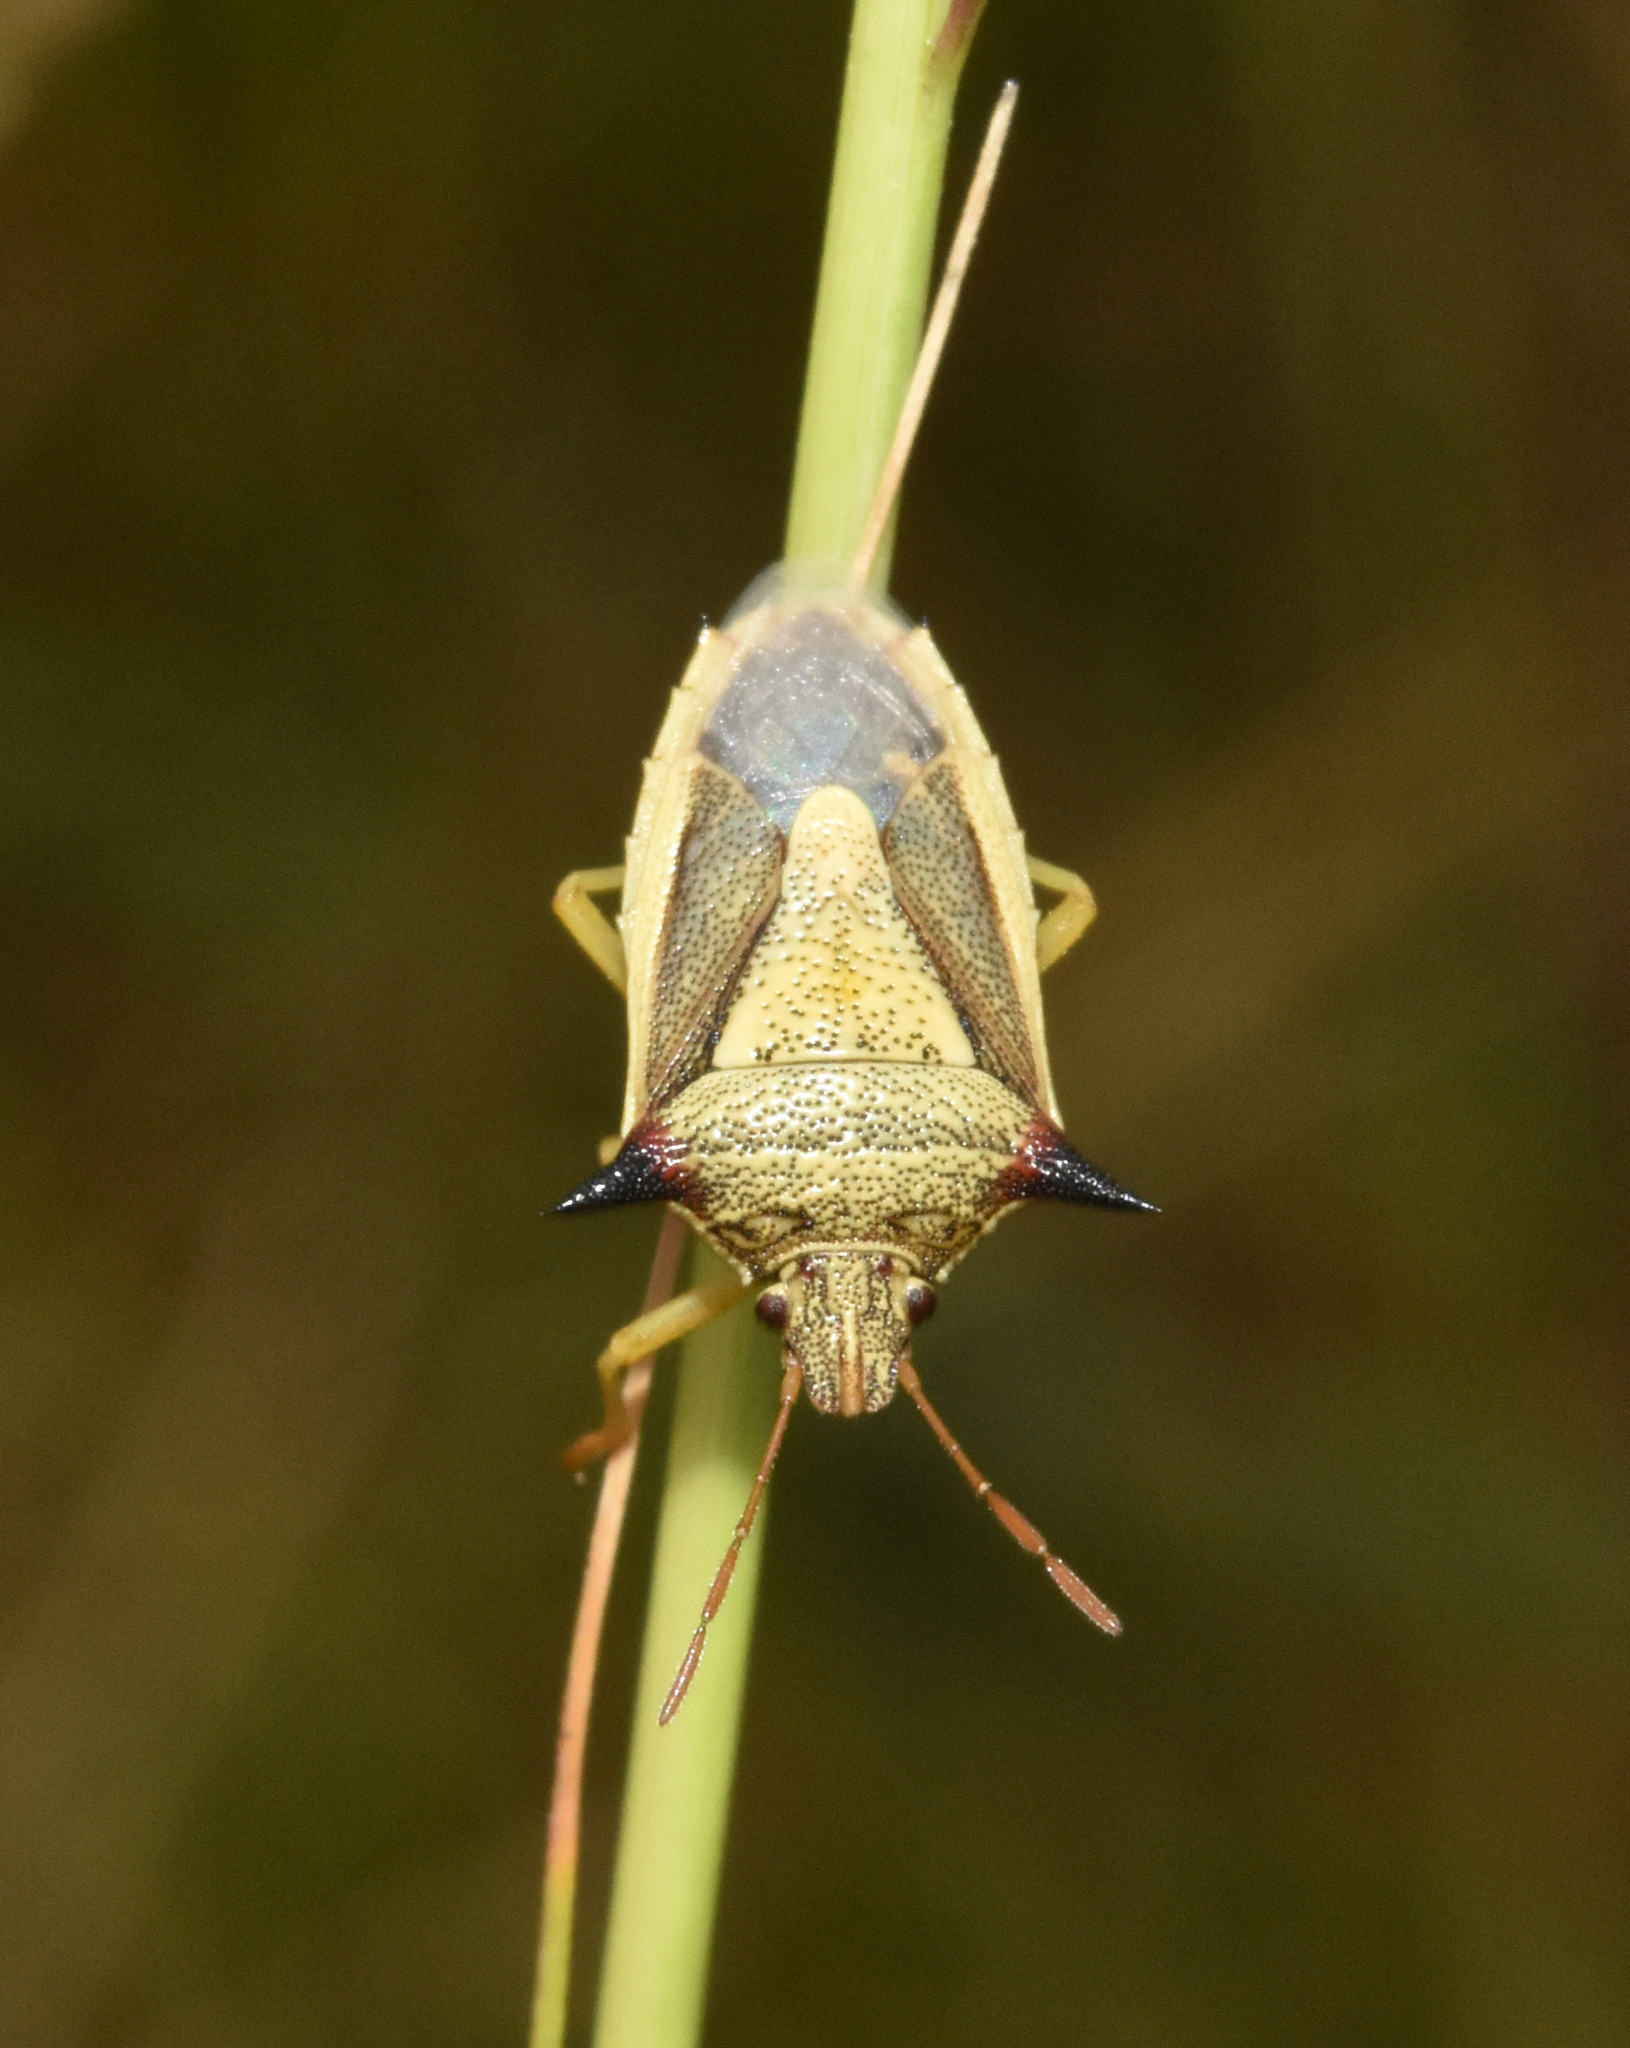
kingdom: Animalia
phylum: Arthropoda
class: Insecta
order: Hemiptera
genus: Durmia
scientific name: Durmia
